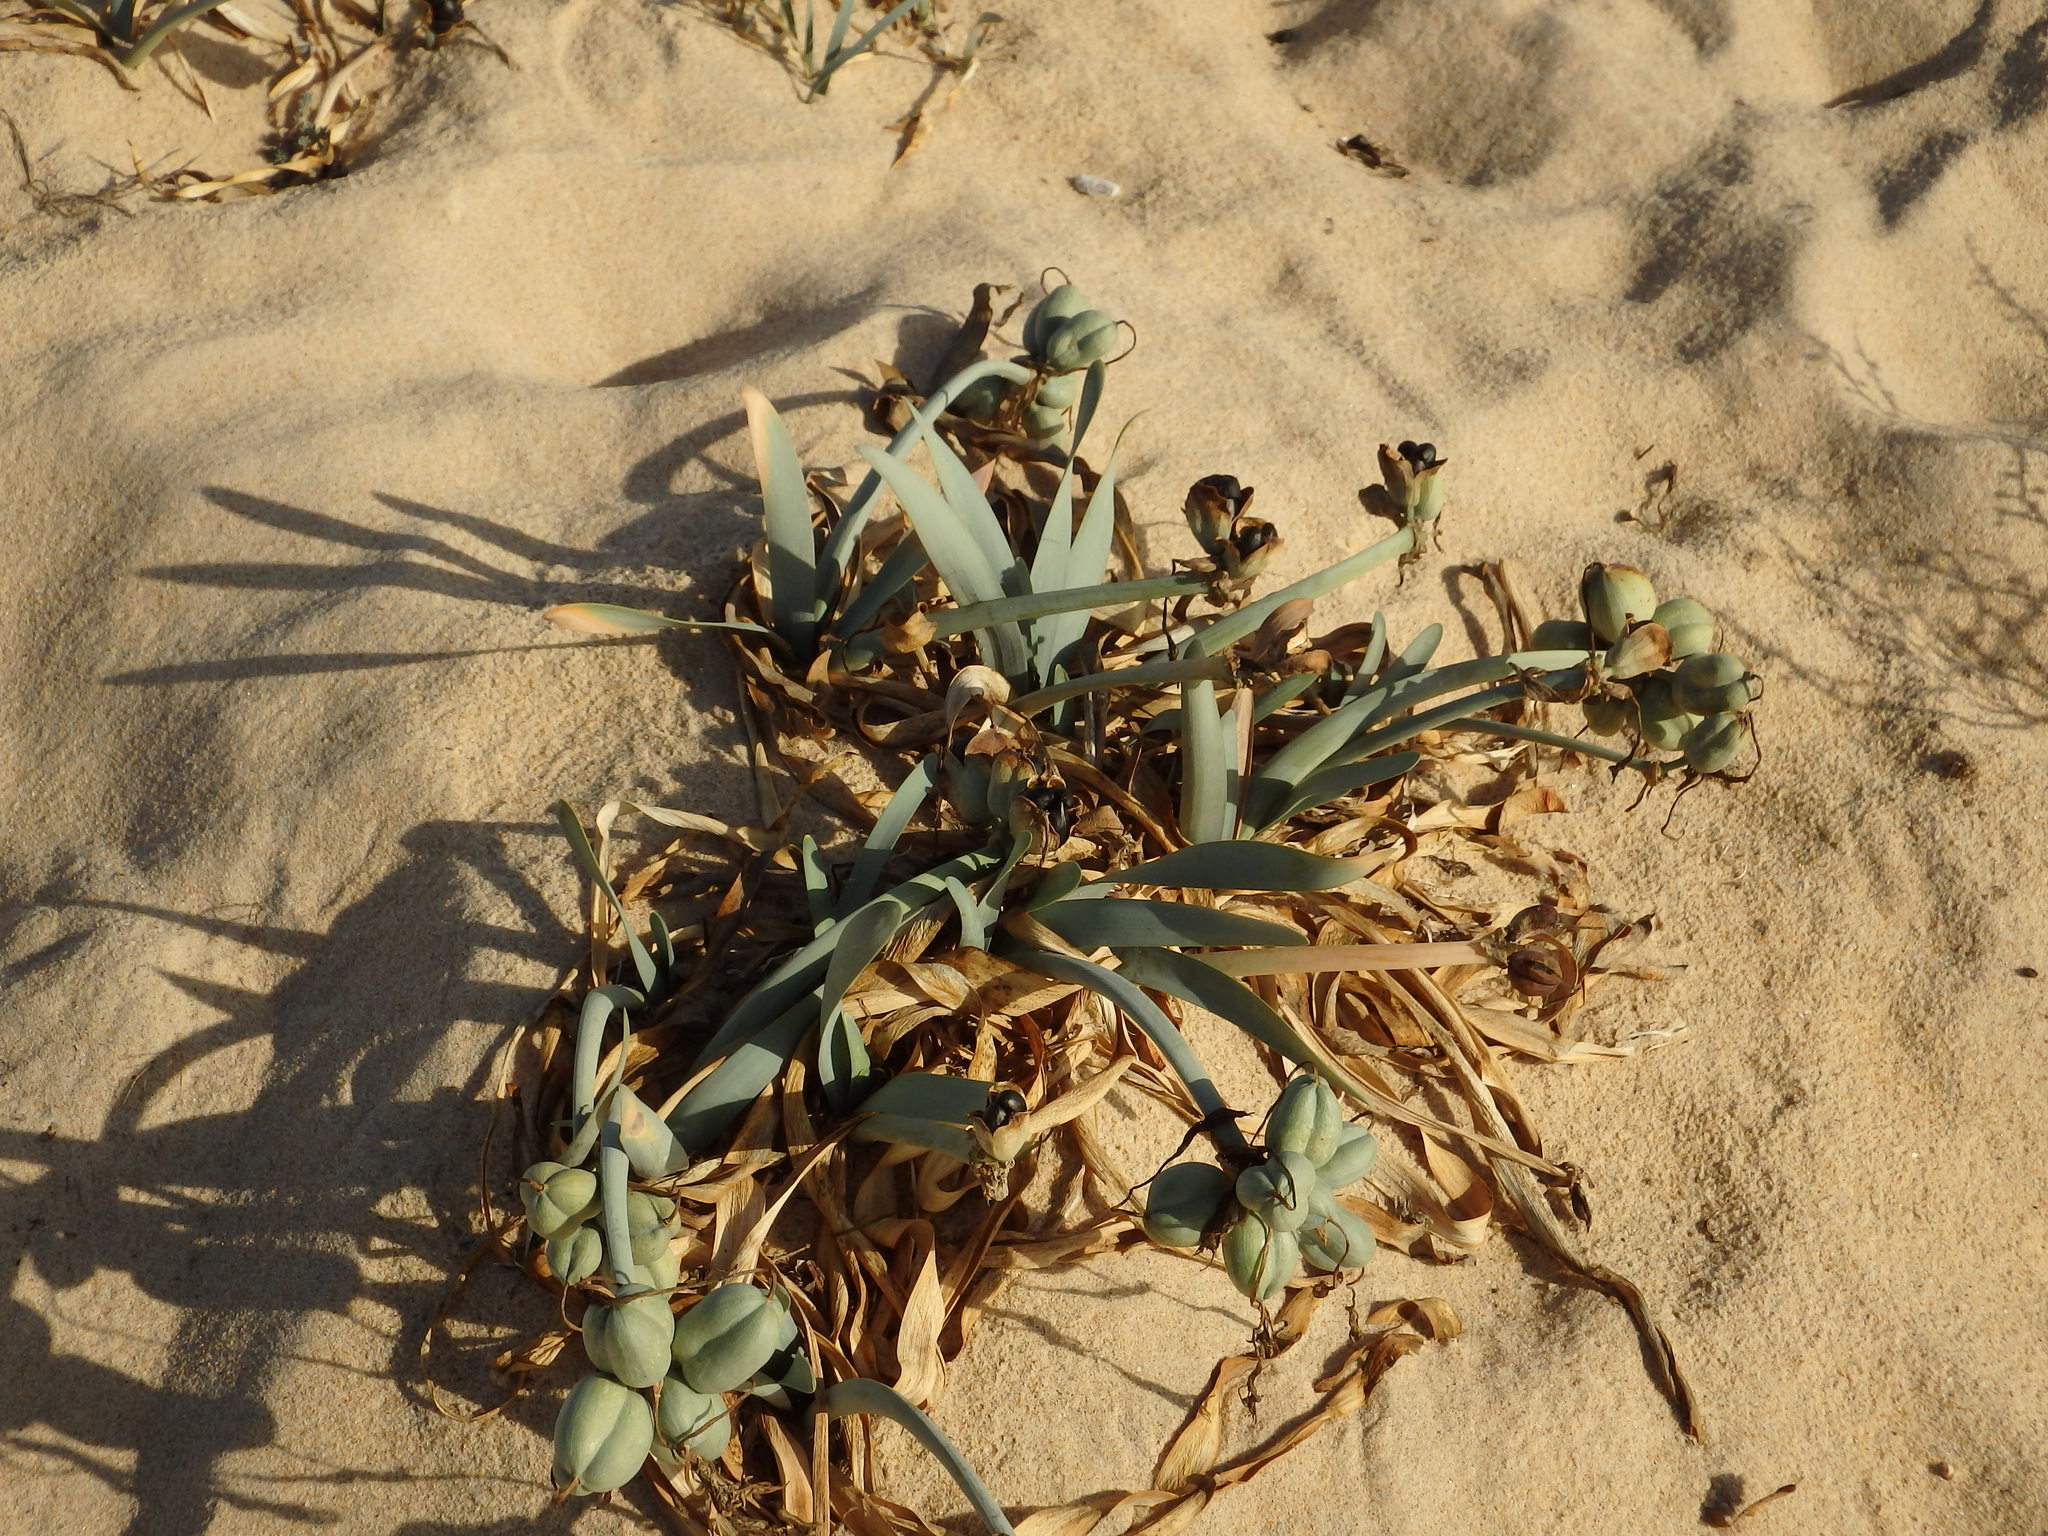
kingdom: Plantae
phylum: Tracheophyta
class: Liliopsida
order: Asparagales
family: Amaryllidaceae
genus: Pancratium
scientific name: Pancratium maritimum
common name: Sea-daffodil
